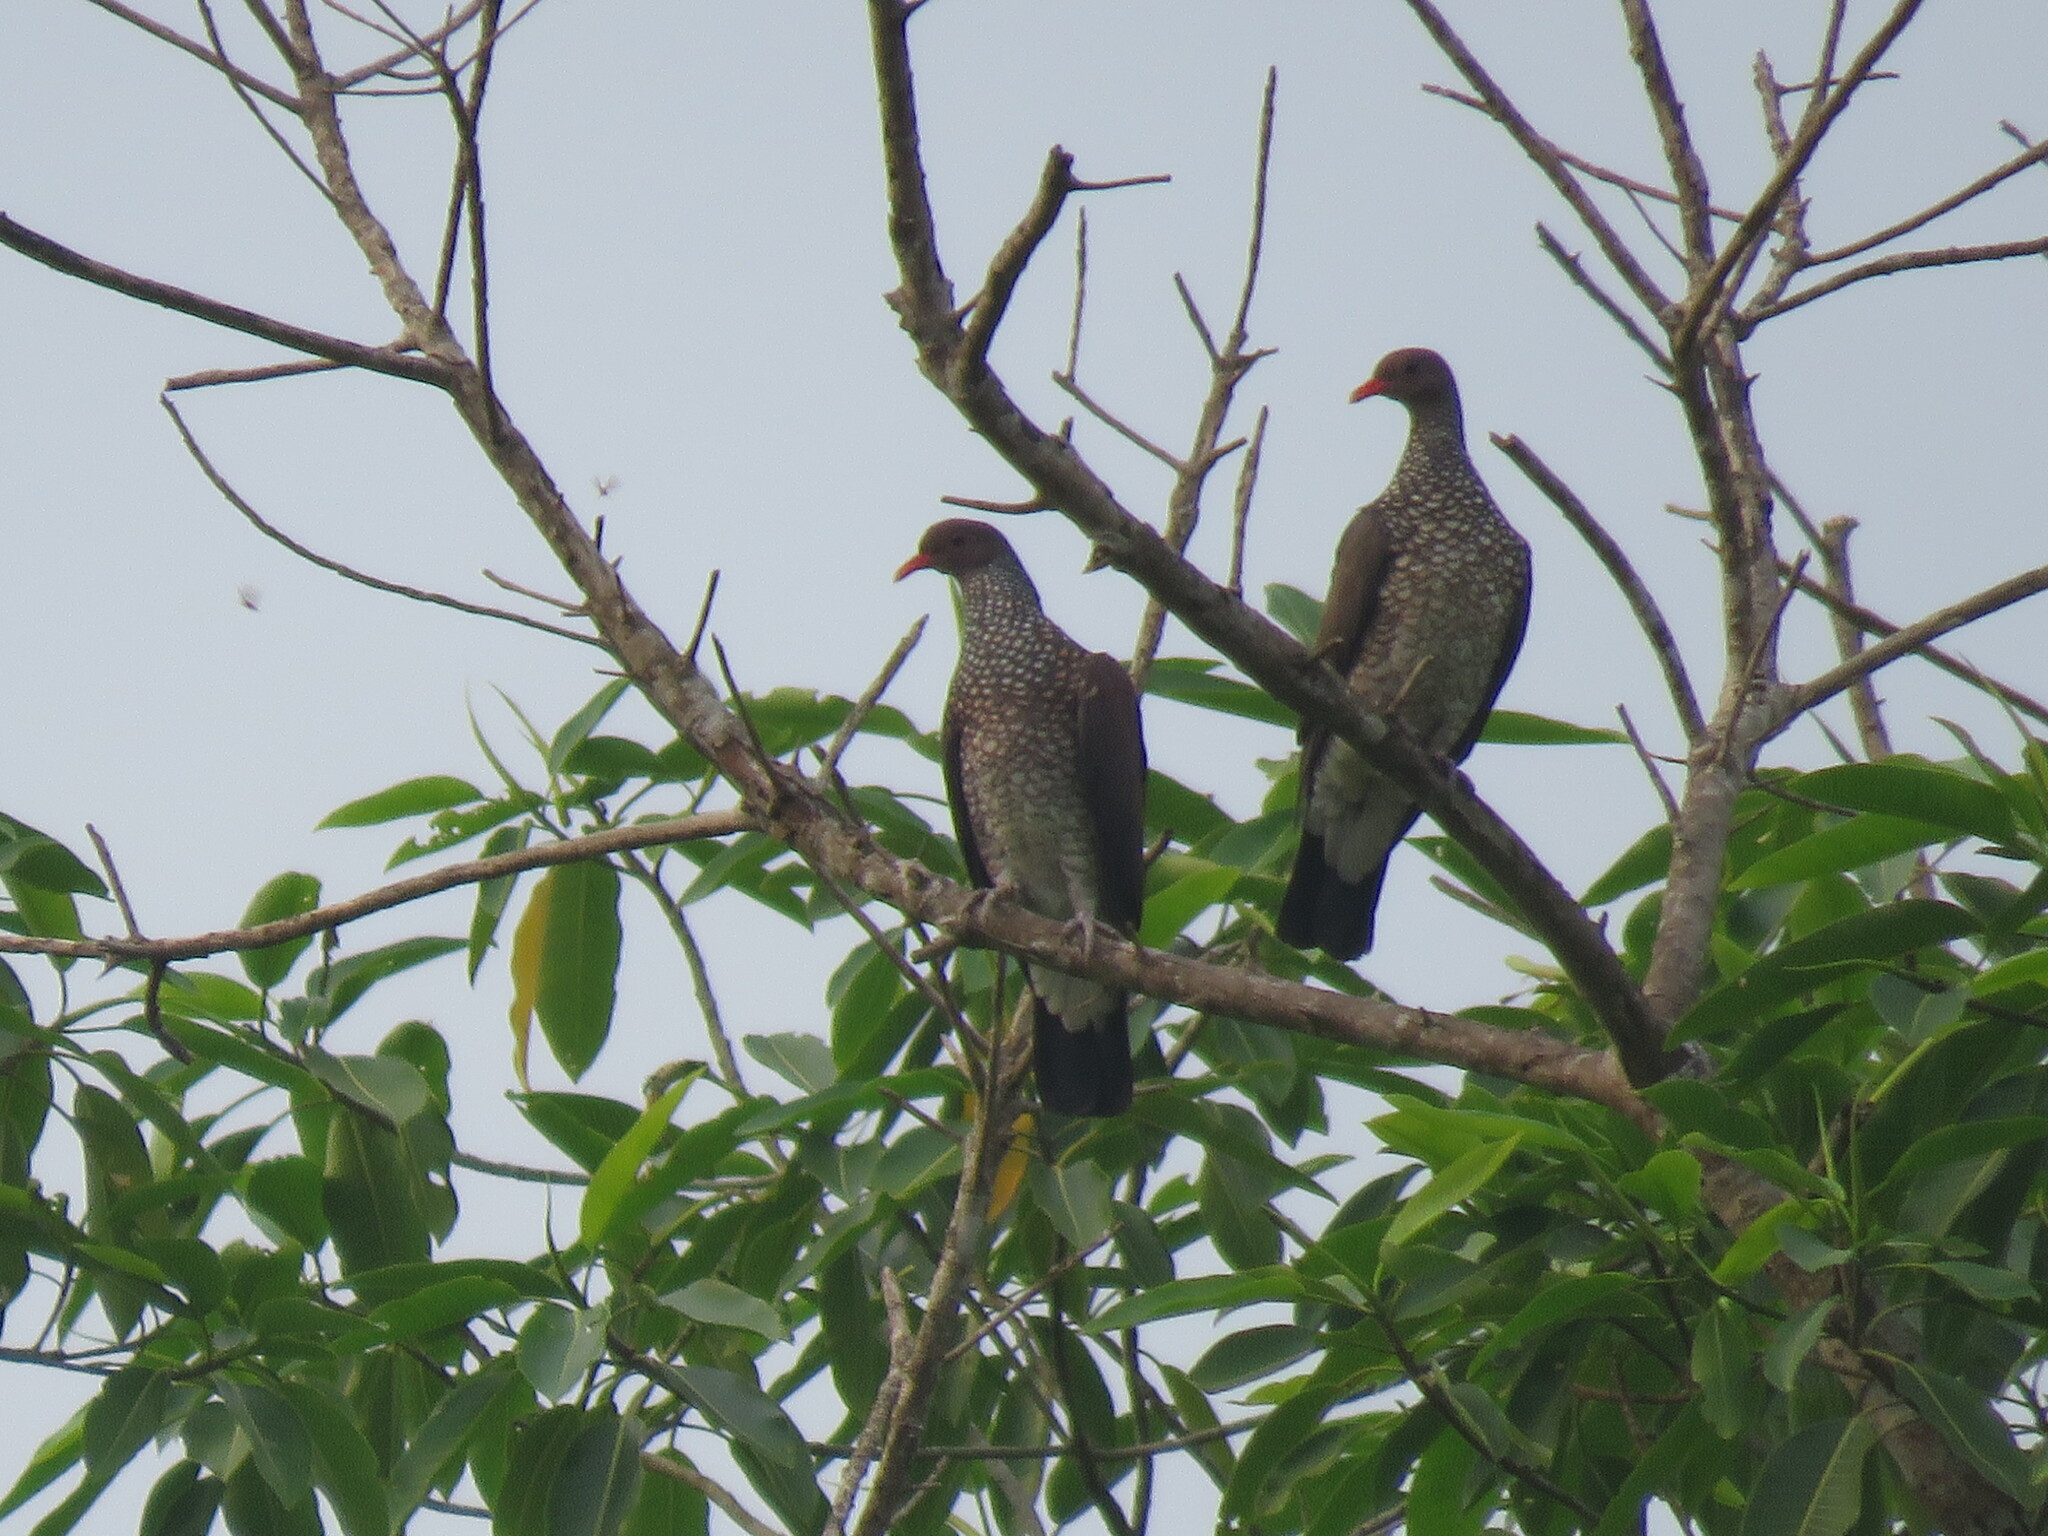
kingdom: Animalia
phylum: Chordata
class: Aves
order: Columbiformes
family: Columbidae
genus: Patagioenas
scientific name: Patagioenas speciosa
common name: Scaled pigeon
